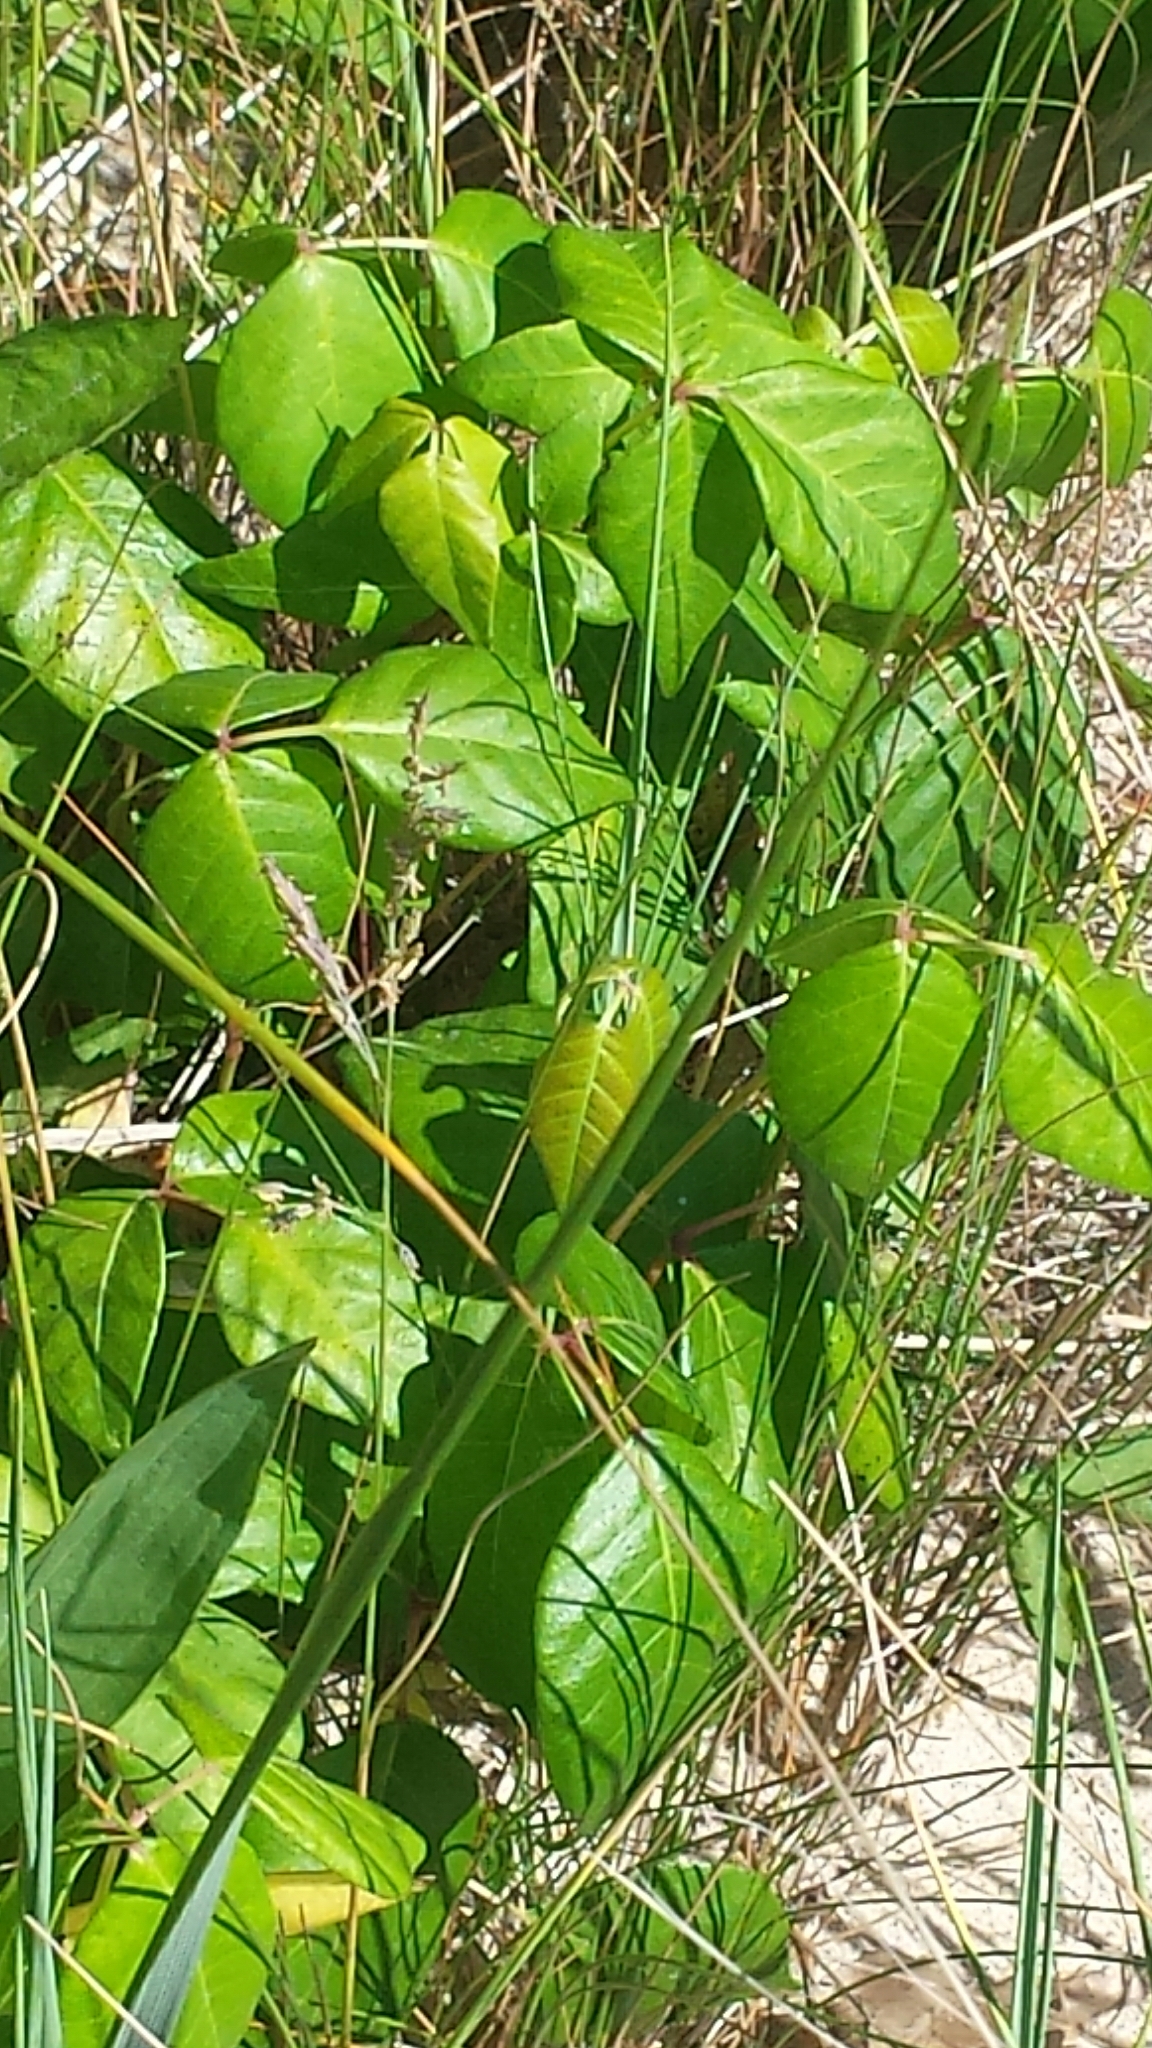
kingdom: Plantae
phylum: Tracheophyta
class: Magnoliopsida
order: Sapindales
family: Anacardiaceae
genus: Toxicodendron
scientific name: Toxicodendron radicans
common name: Poison ivy
